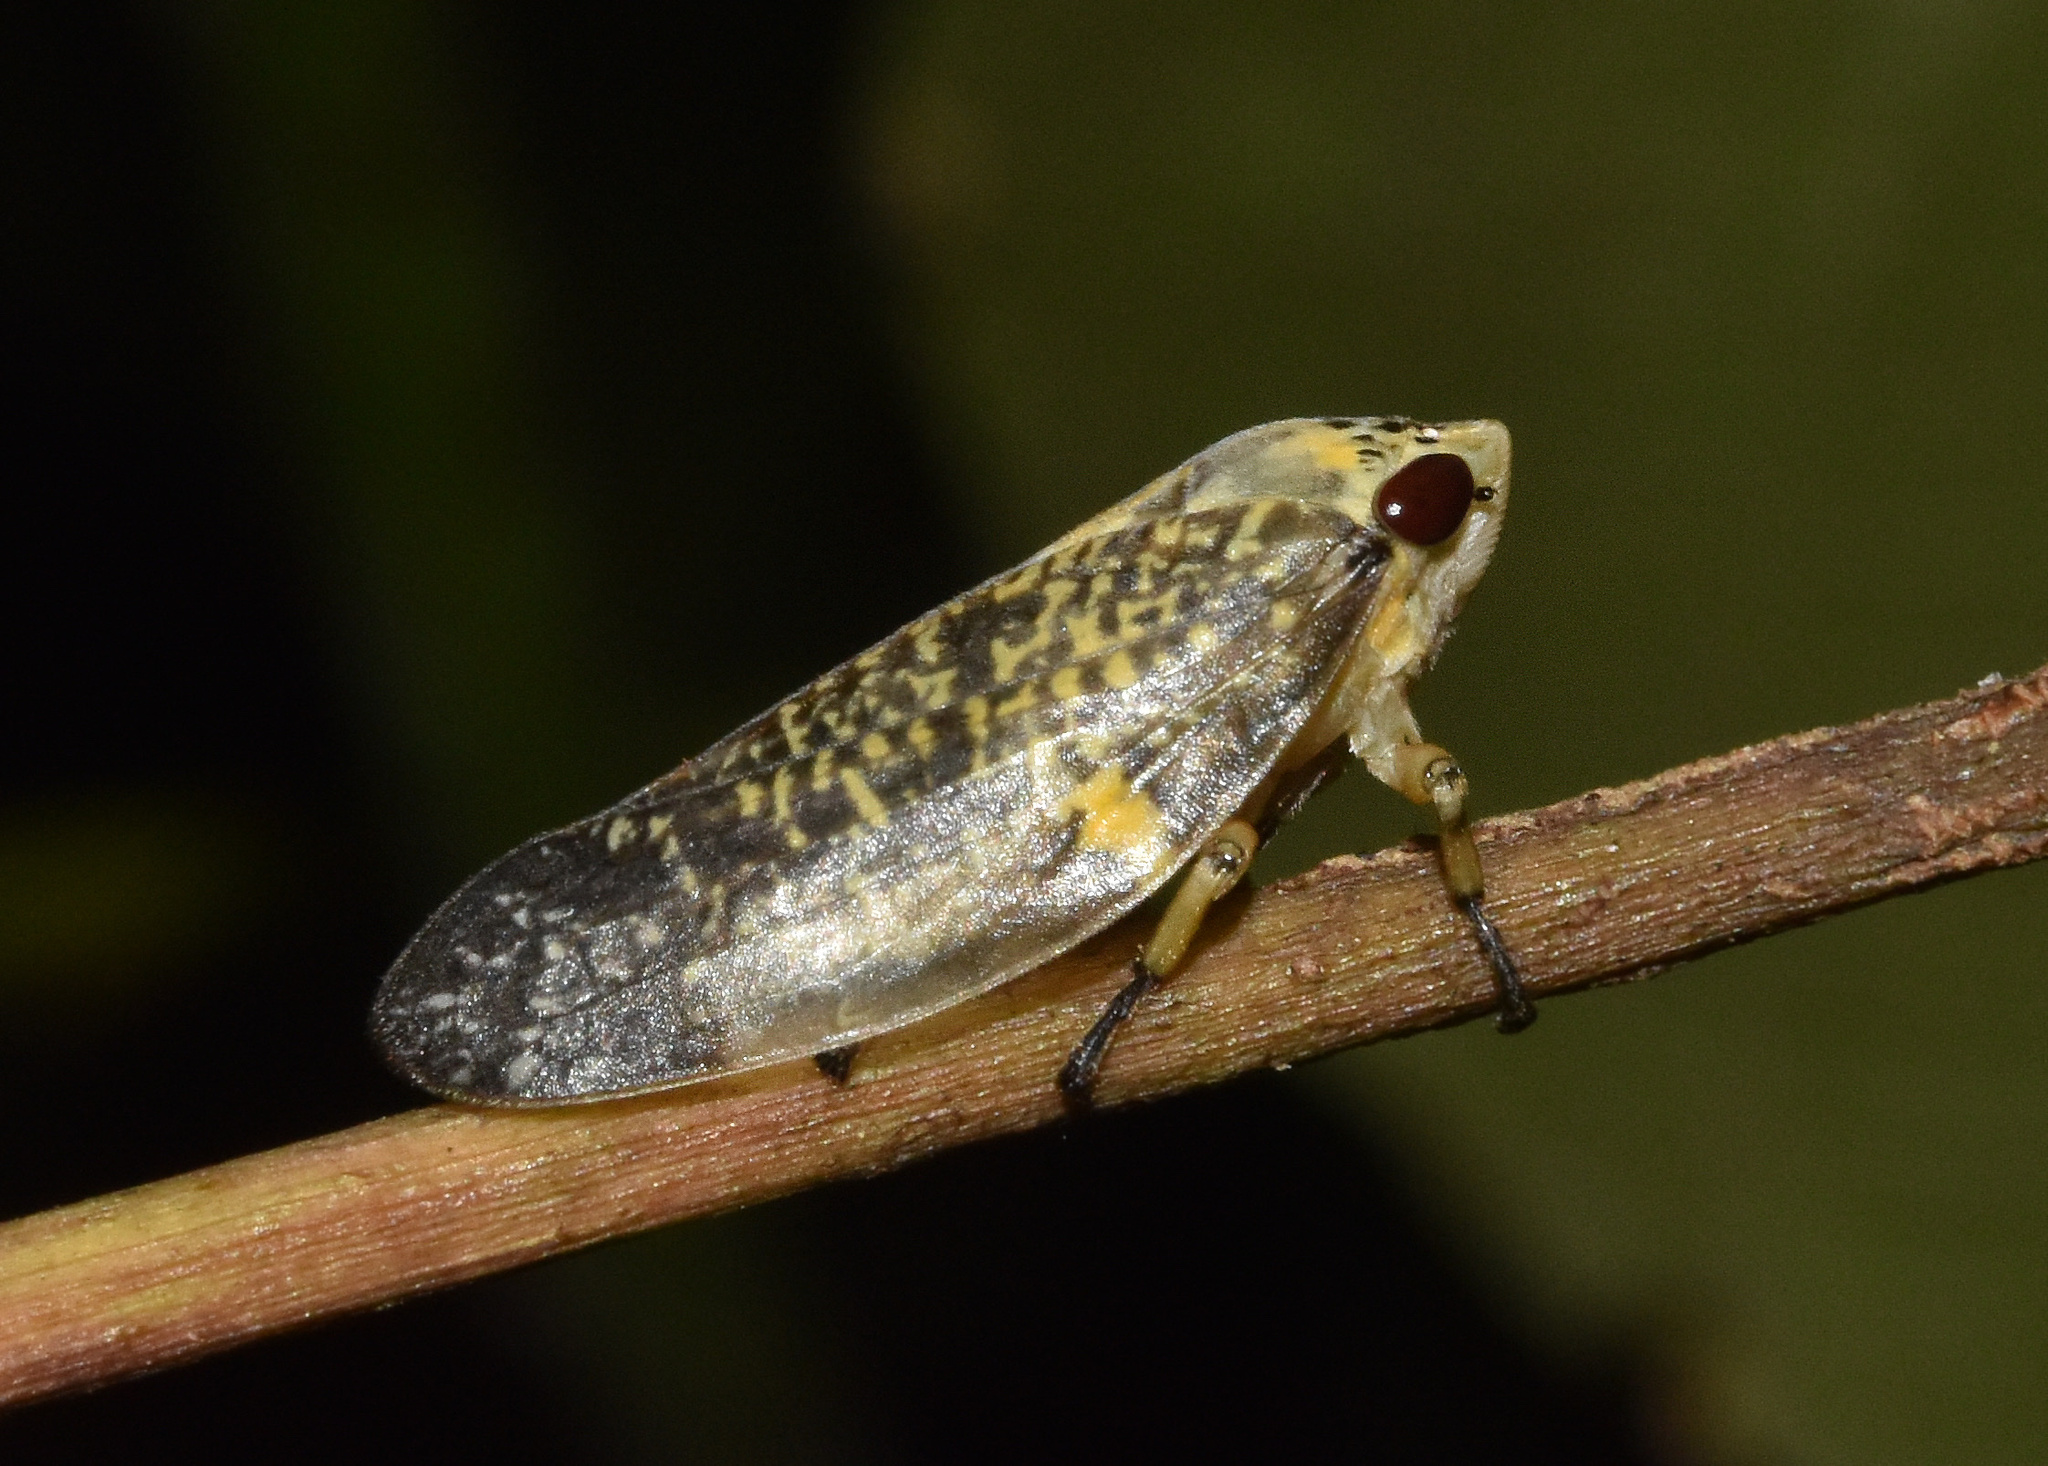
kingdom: Animalia
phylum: Arthropoda
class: Insecta
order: Hemiptera
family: Aphrophoridae
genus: Ptyelus
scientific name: Ptyelus grossus
